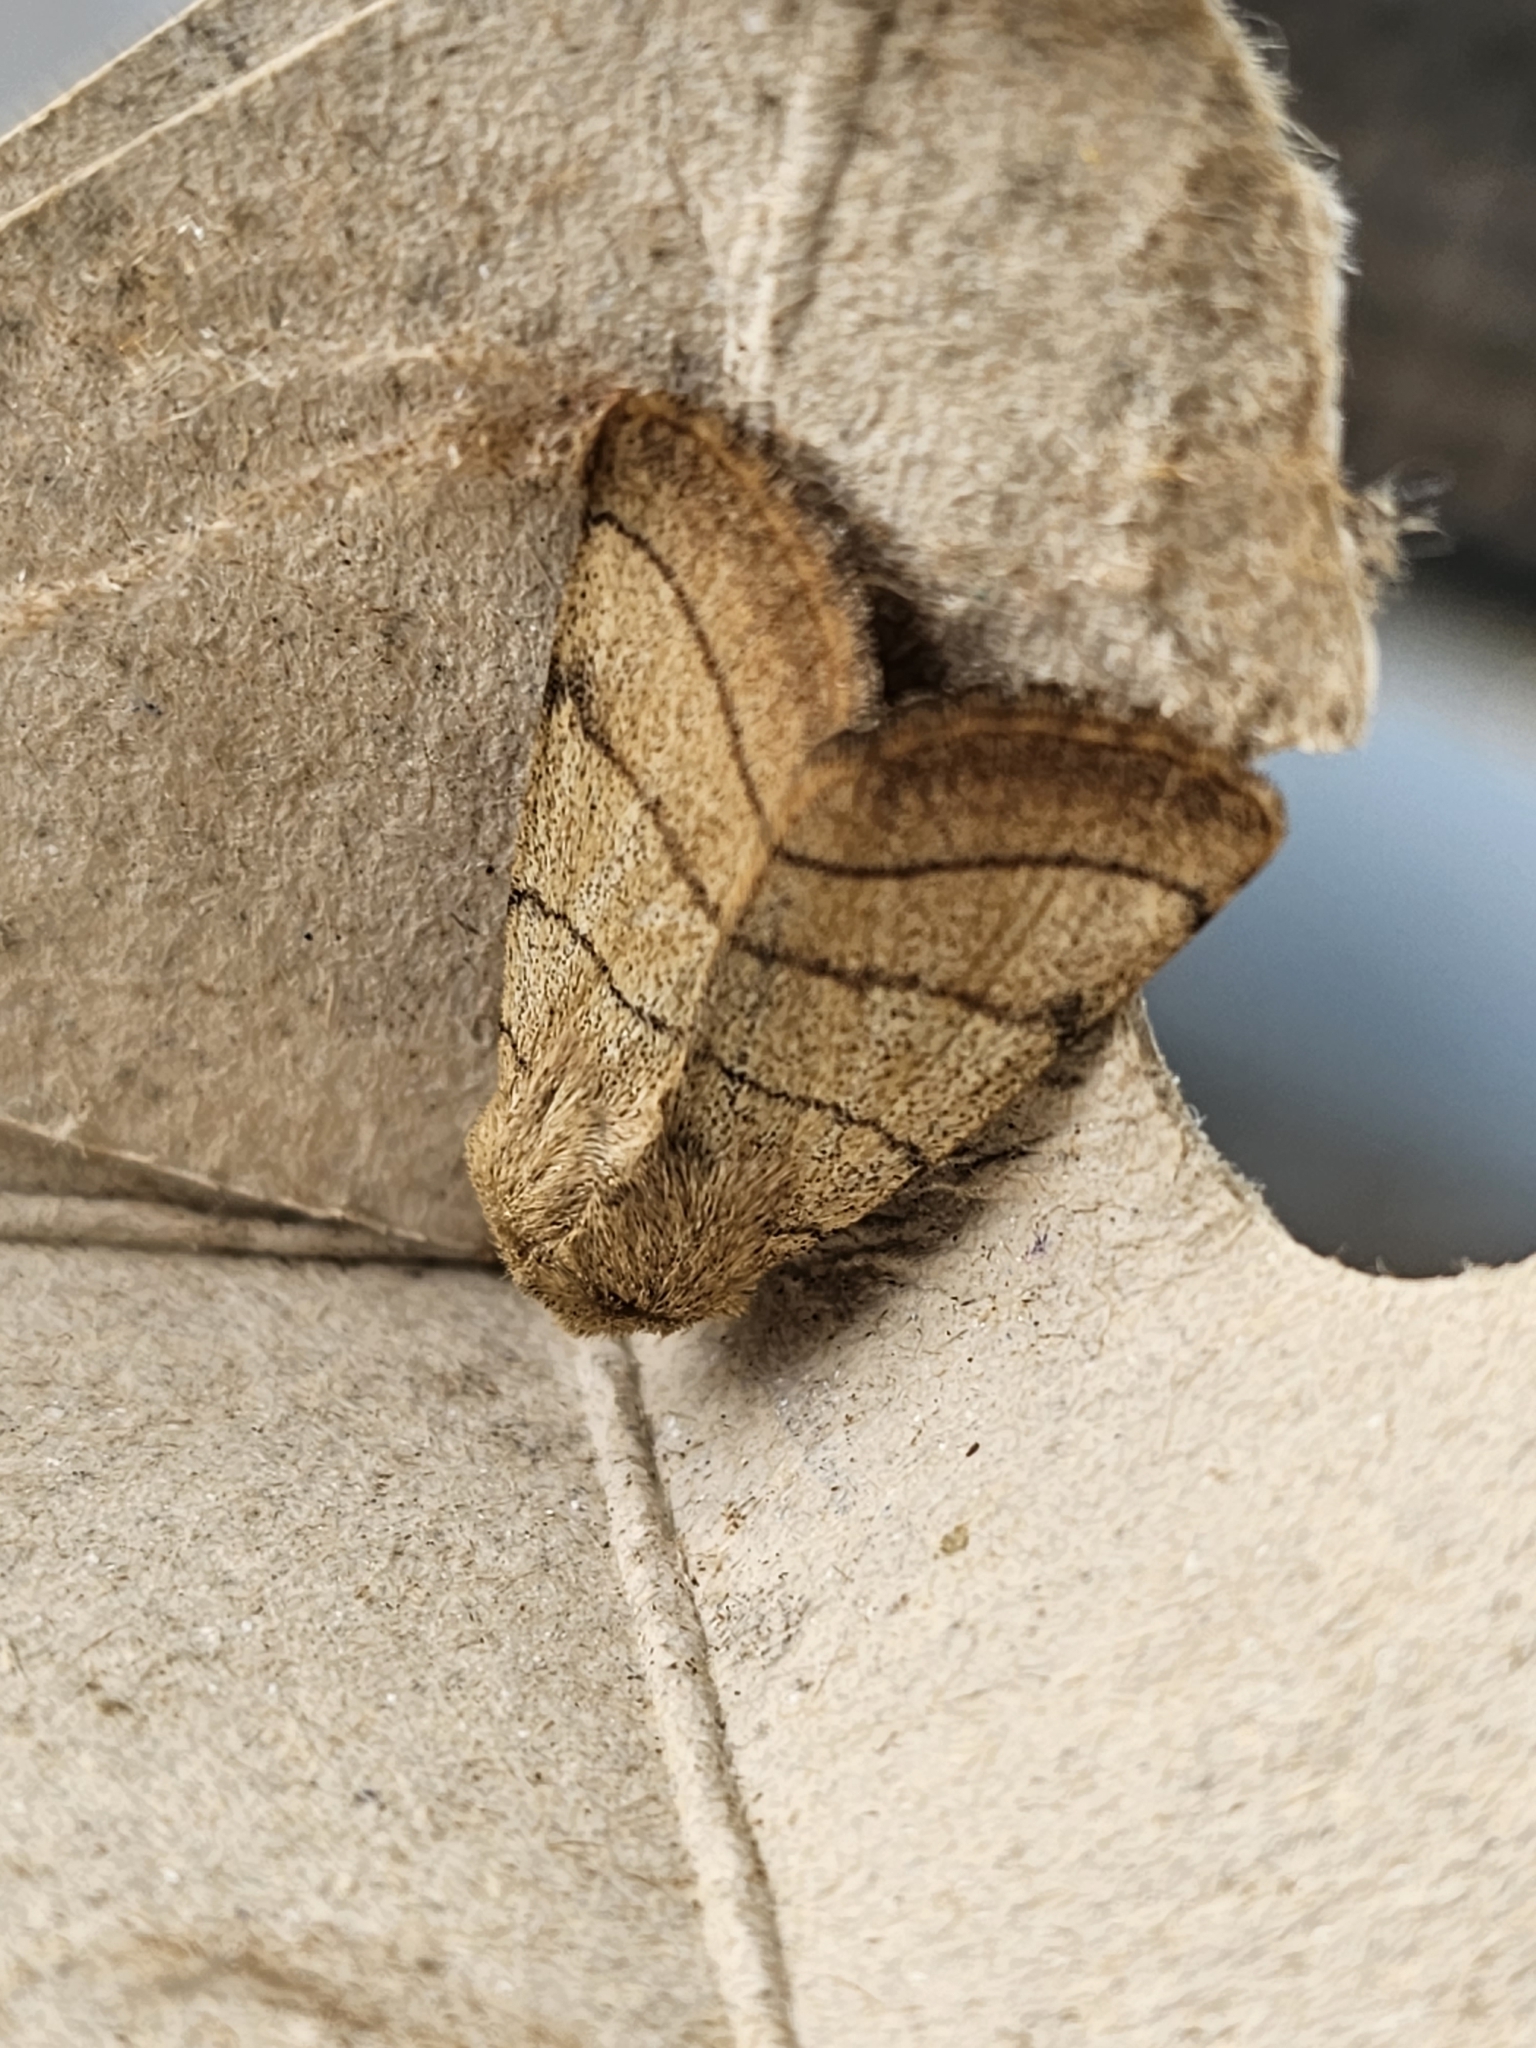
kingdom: Animalia
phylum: Arthropoda
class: Insecta
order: Lepidoptera
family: Noctuidae
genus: Charanyca
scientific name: Charanyca trigrammica
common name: Treble lines
